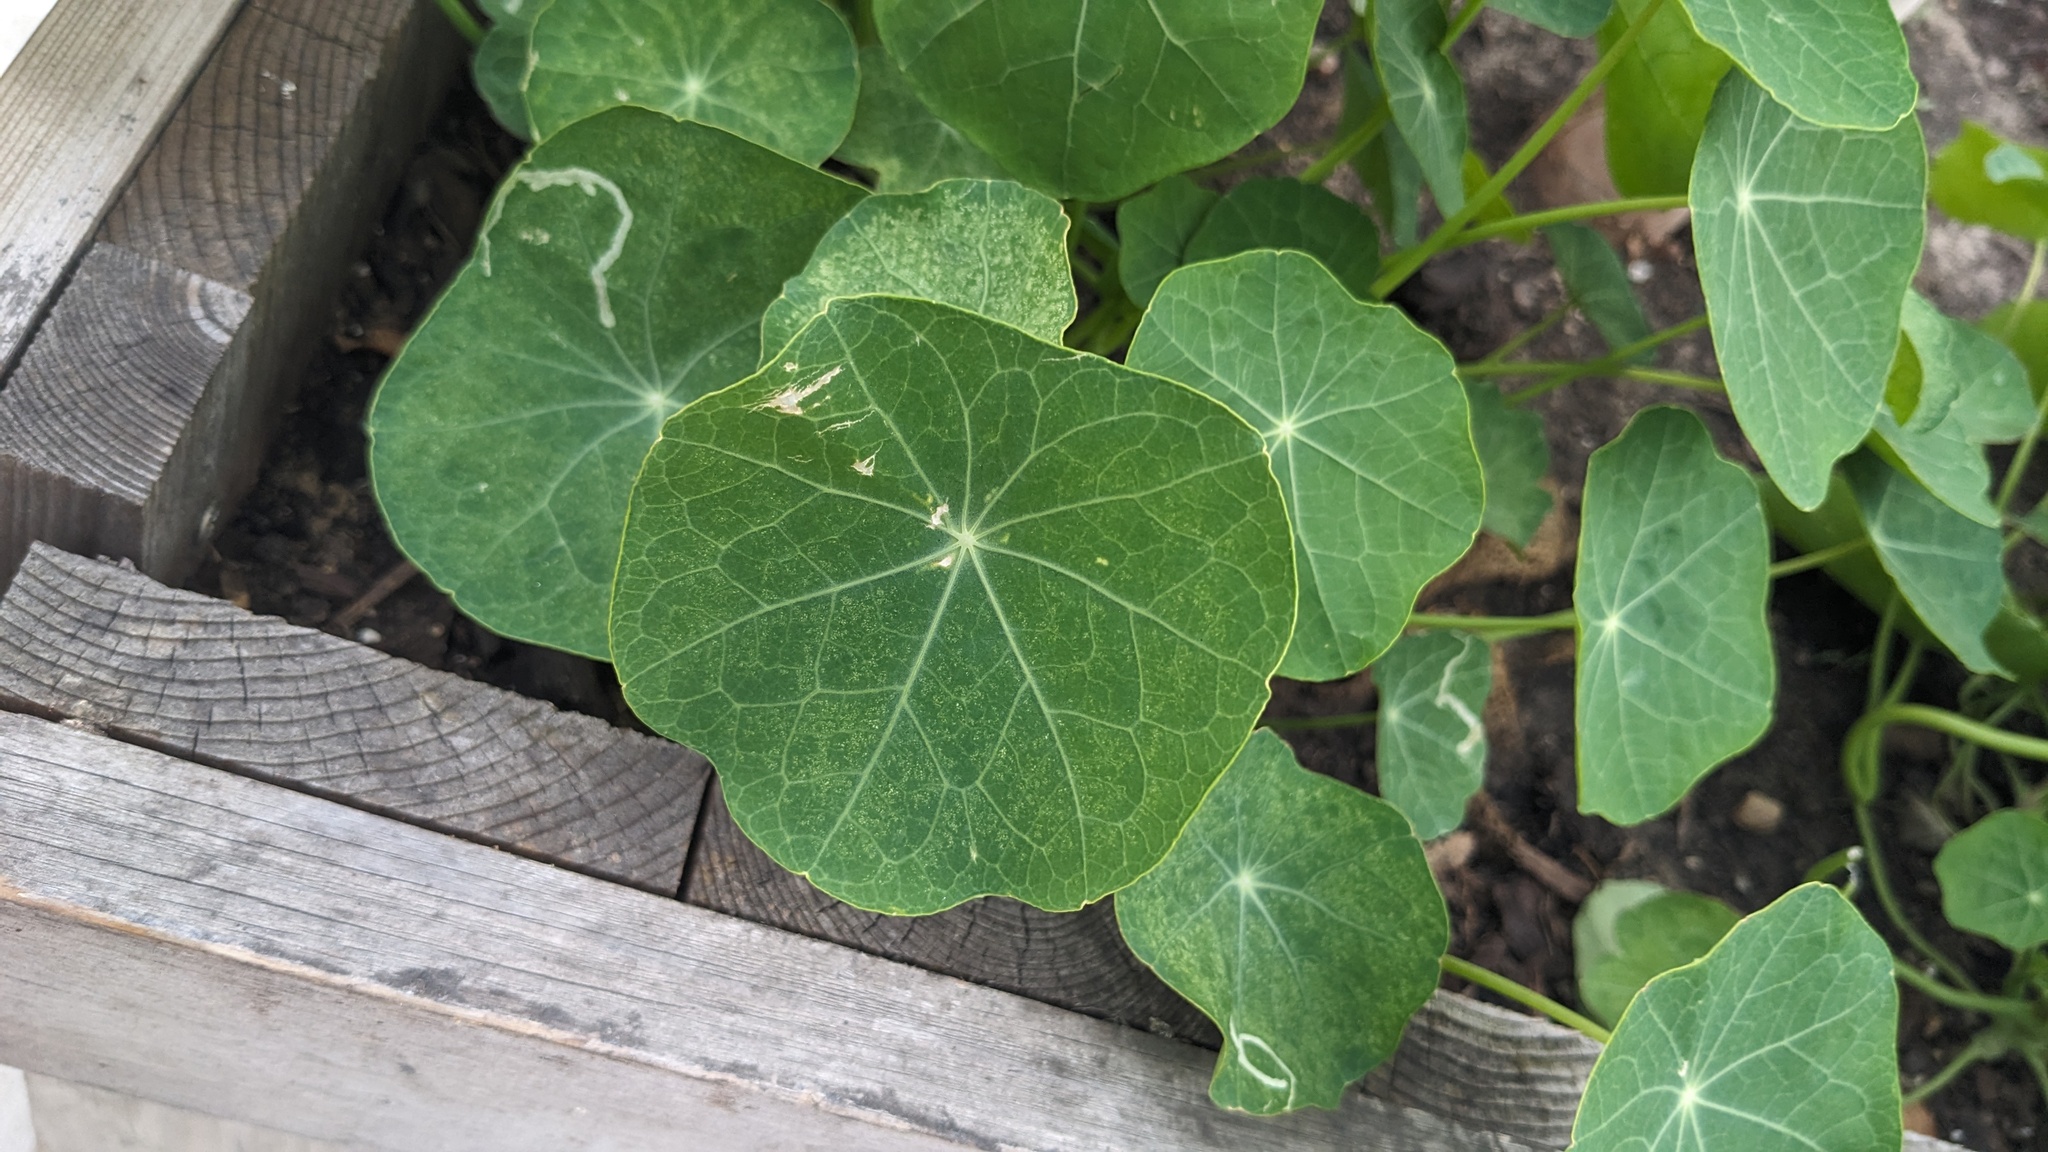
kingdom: Animalia
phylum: Arthropoda
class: Insecta
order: Diptera
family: Agromyzidae
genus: Liriomyza
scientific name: Liriomyza brassicae
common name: Serpentine leaf miner
